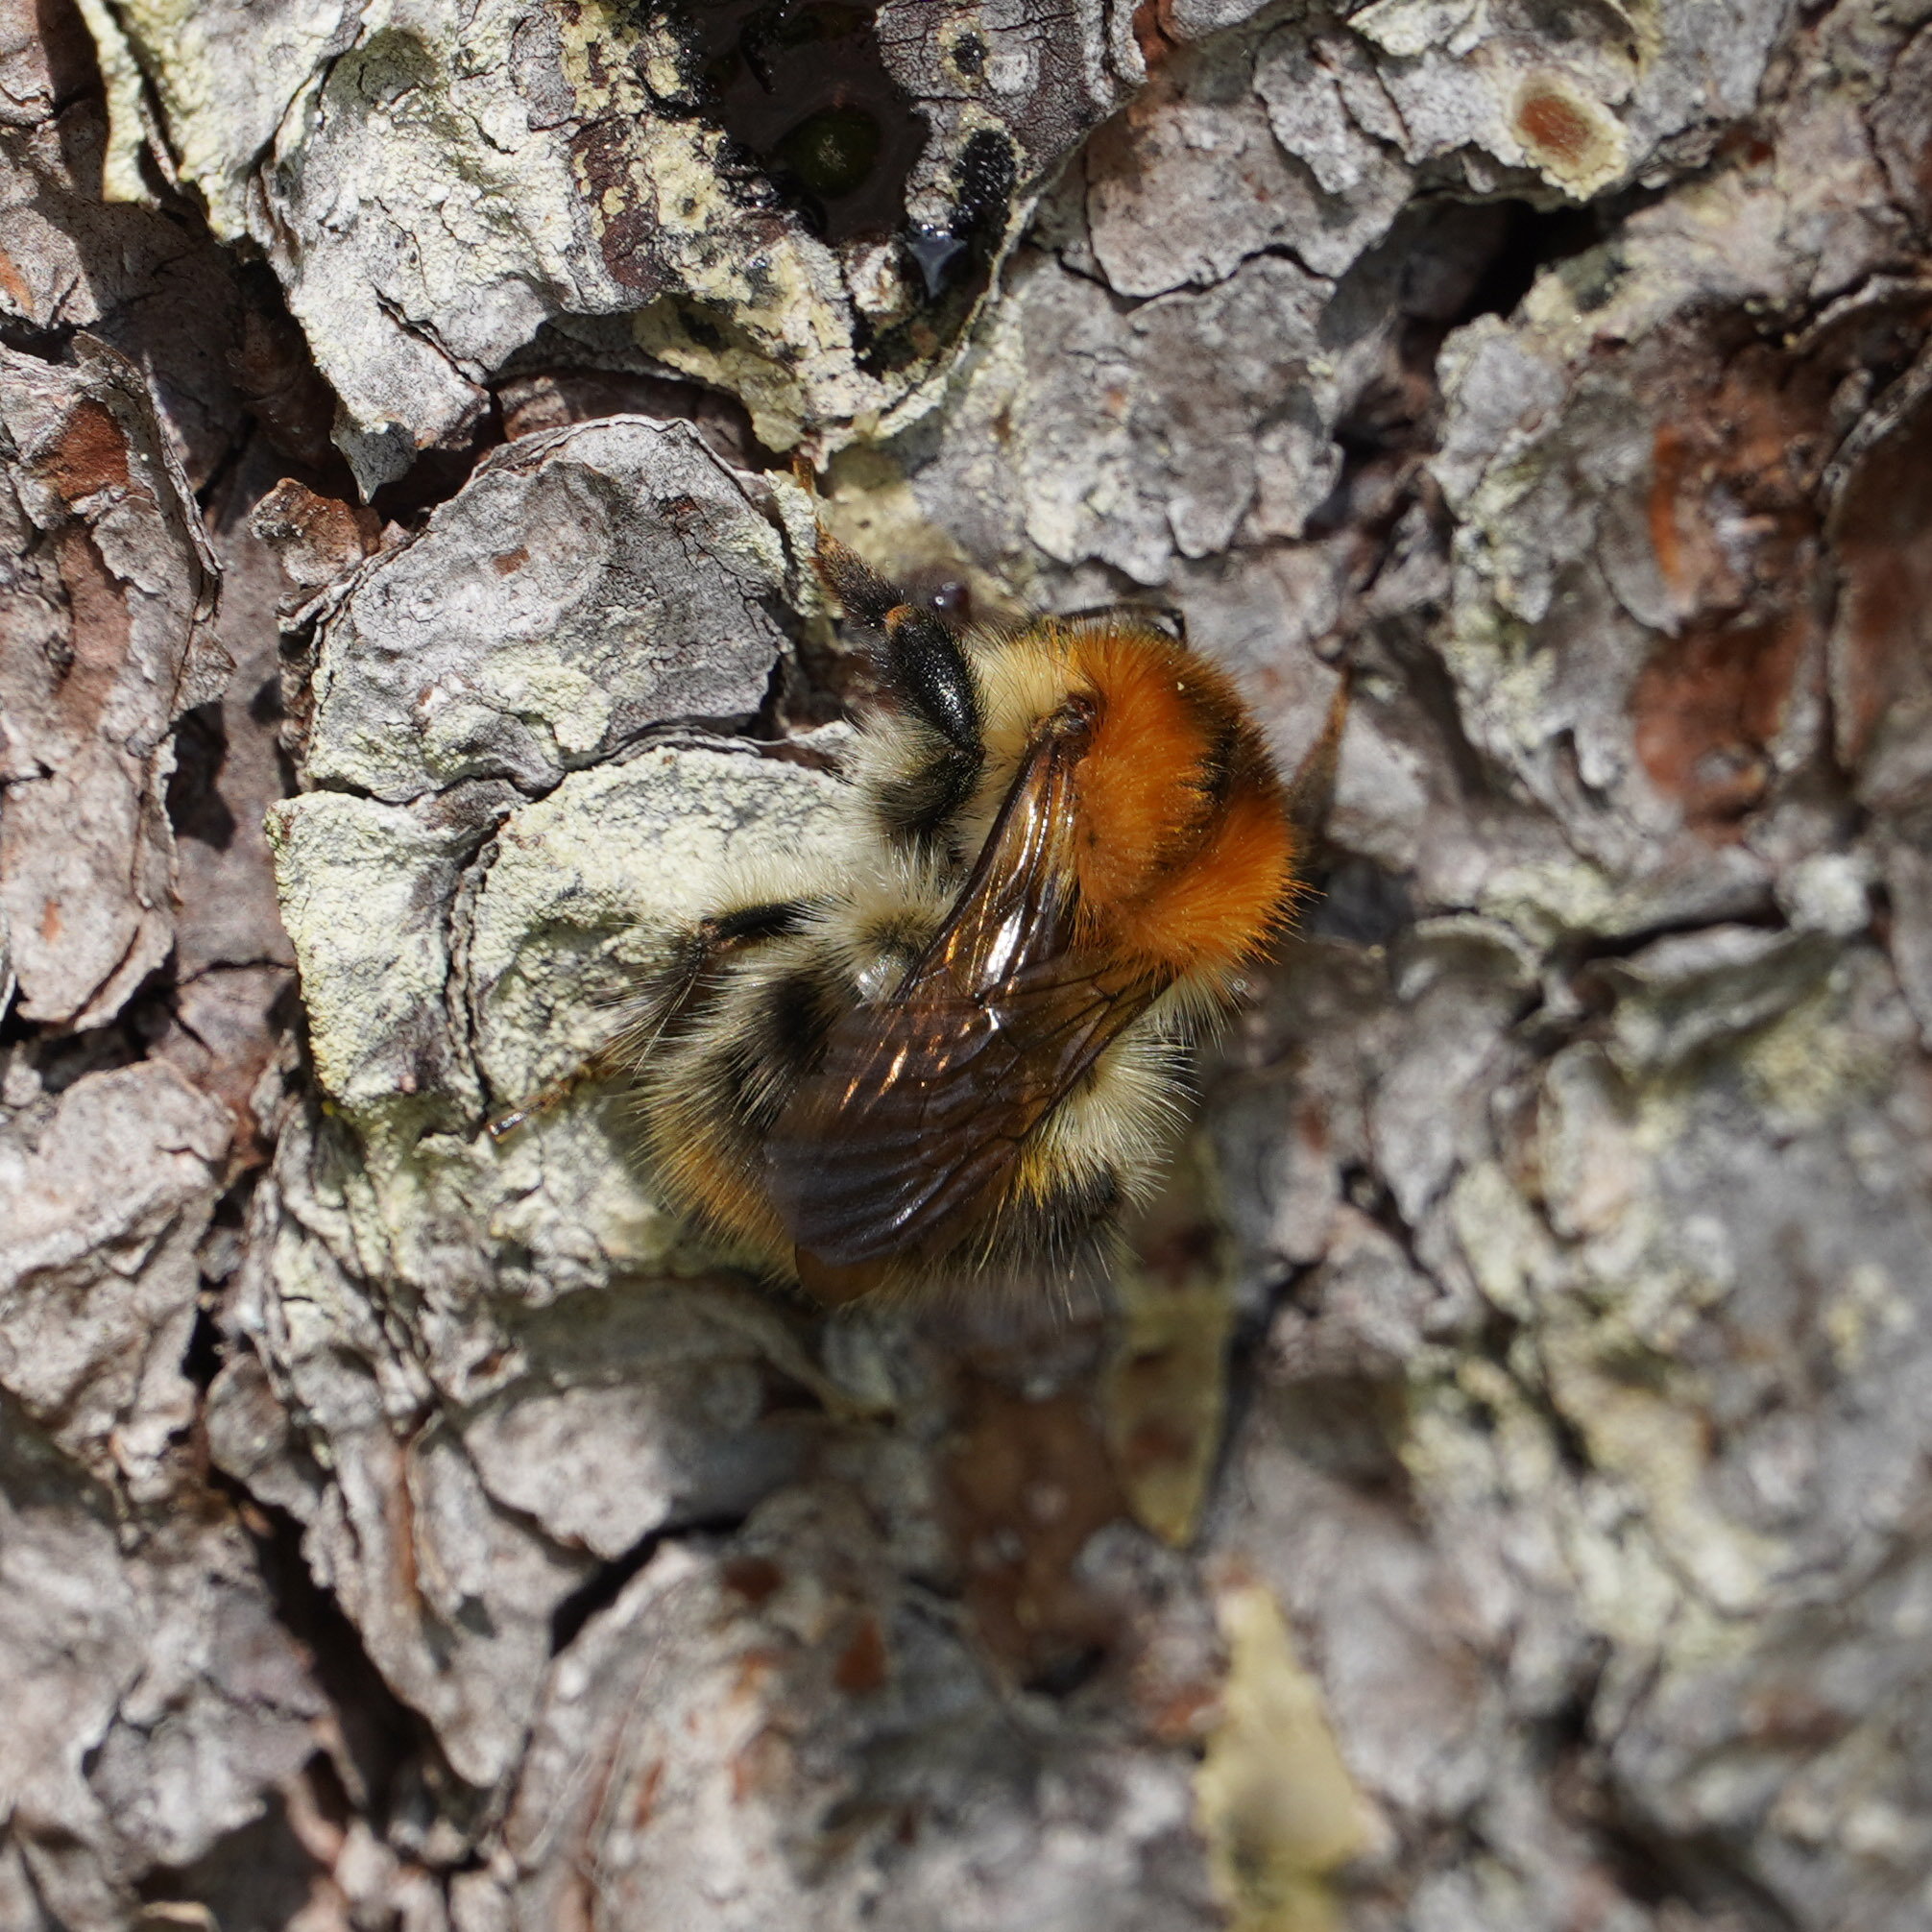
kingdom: Animalia
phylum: Arthropoda
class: Insecta
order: Hymenoptera
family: Apidae
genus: Bombus
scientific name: Bombus pascuorum
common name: Common carder bee
